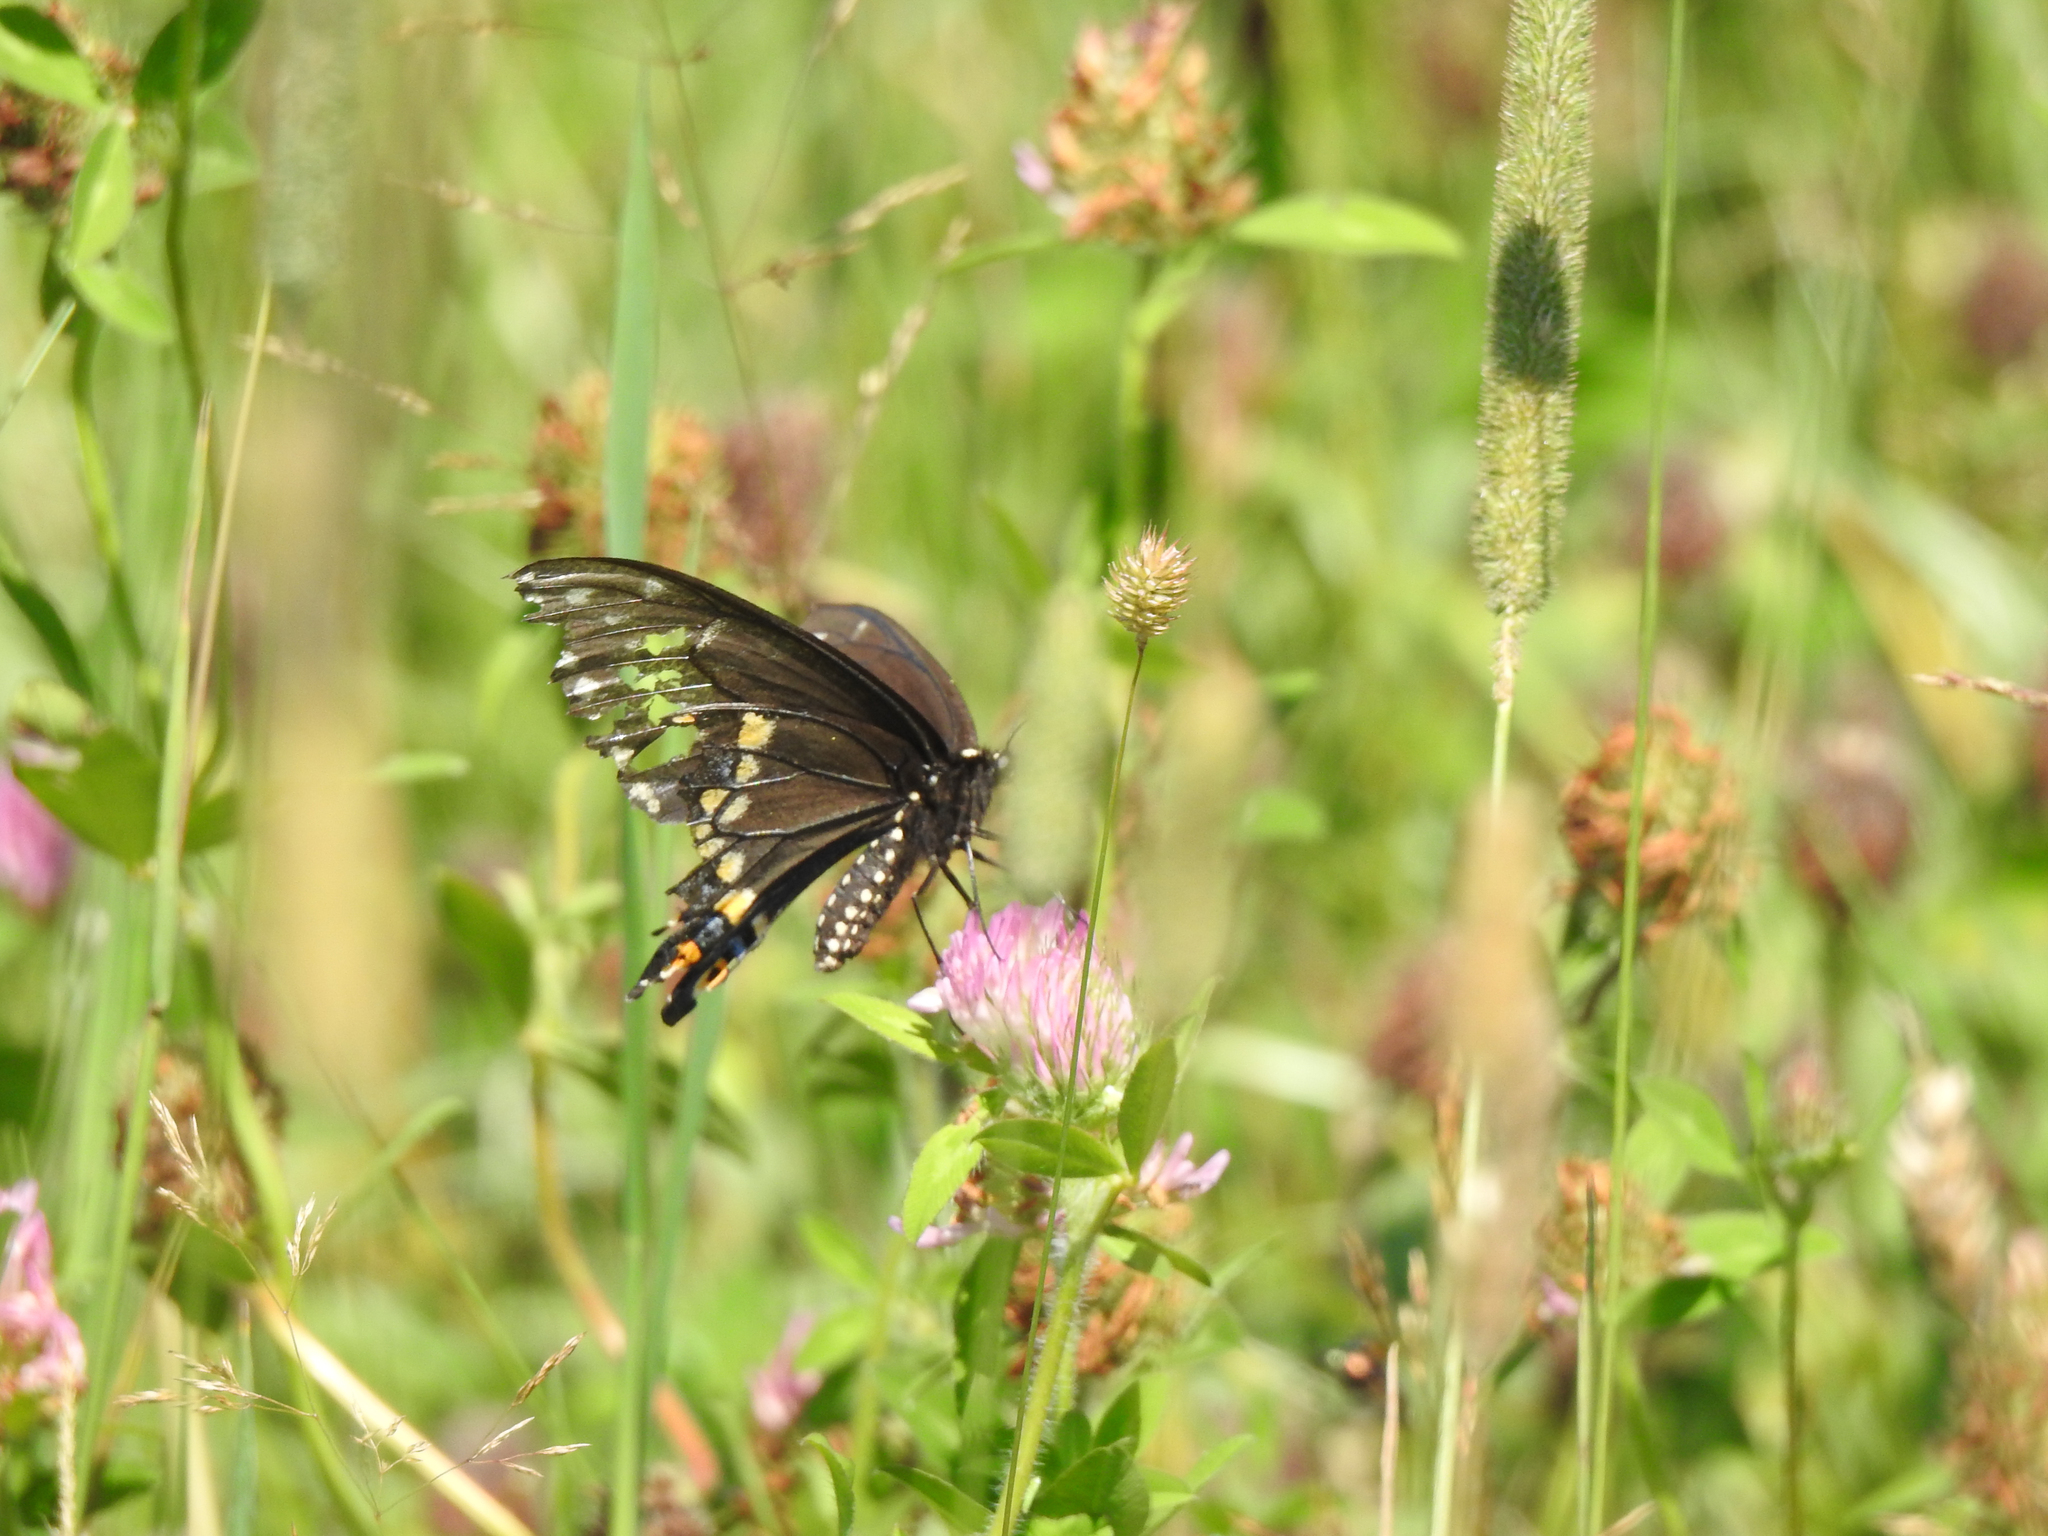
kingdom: Animalia
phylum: Arthropoda
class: Insecta
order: Lepidoptera
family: Papilionidae
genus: Papilio
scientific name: Papilio polyxenes
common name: Black swallowtail
